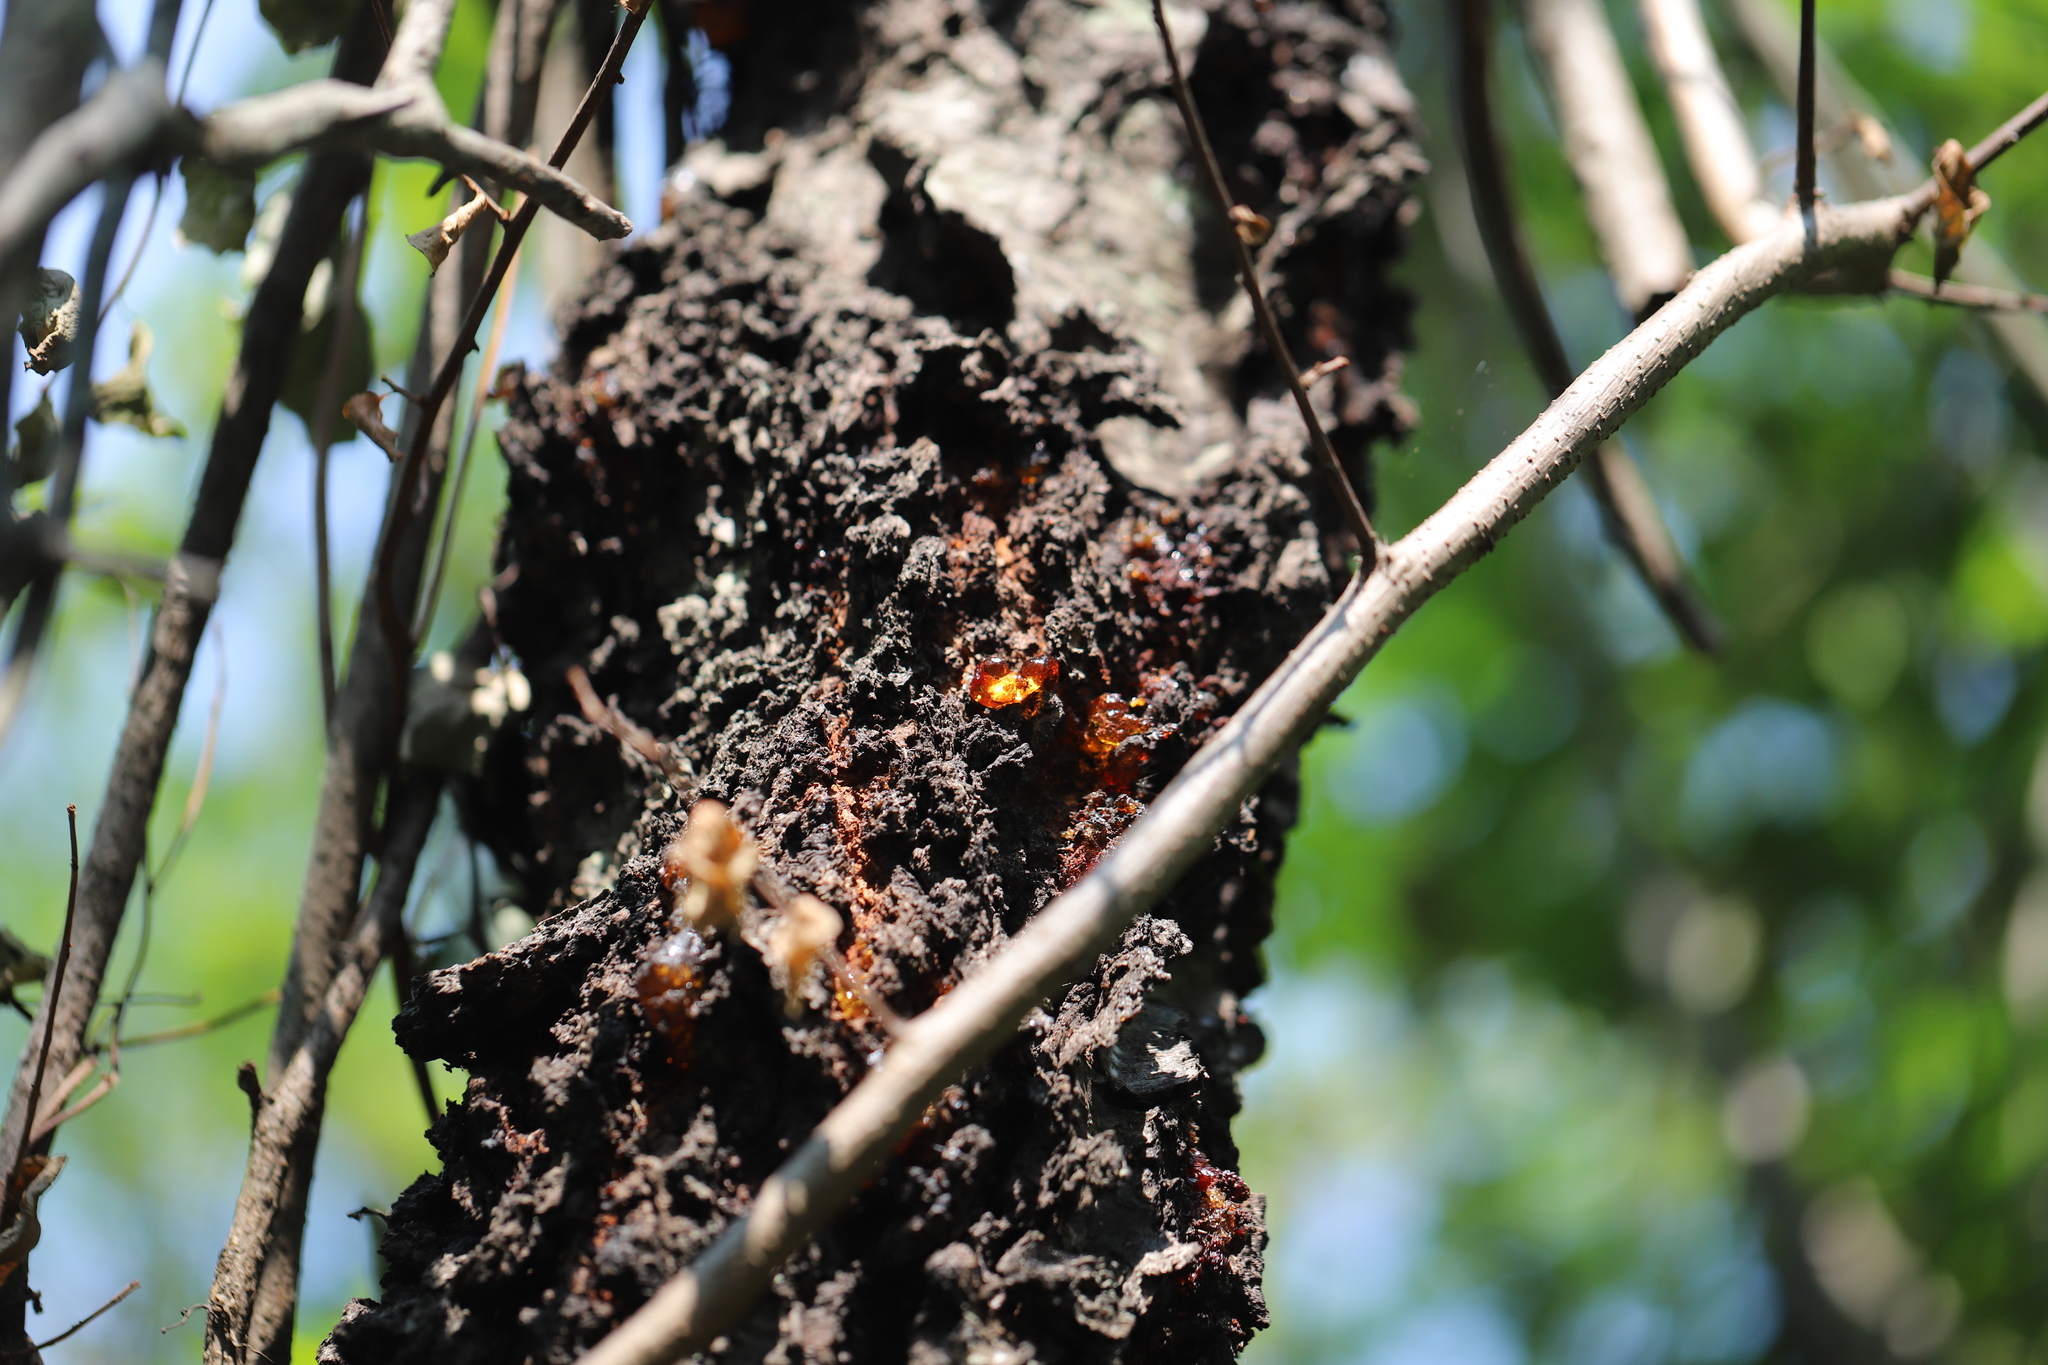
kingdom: Plantae
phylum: Tracheophyta
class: Magnoliopsida
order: Rosales
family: Rosaceae
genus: Prunus
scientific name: Prunus serotina
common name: Black cherry
